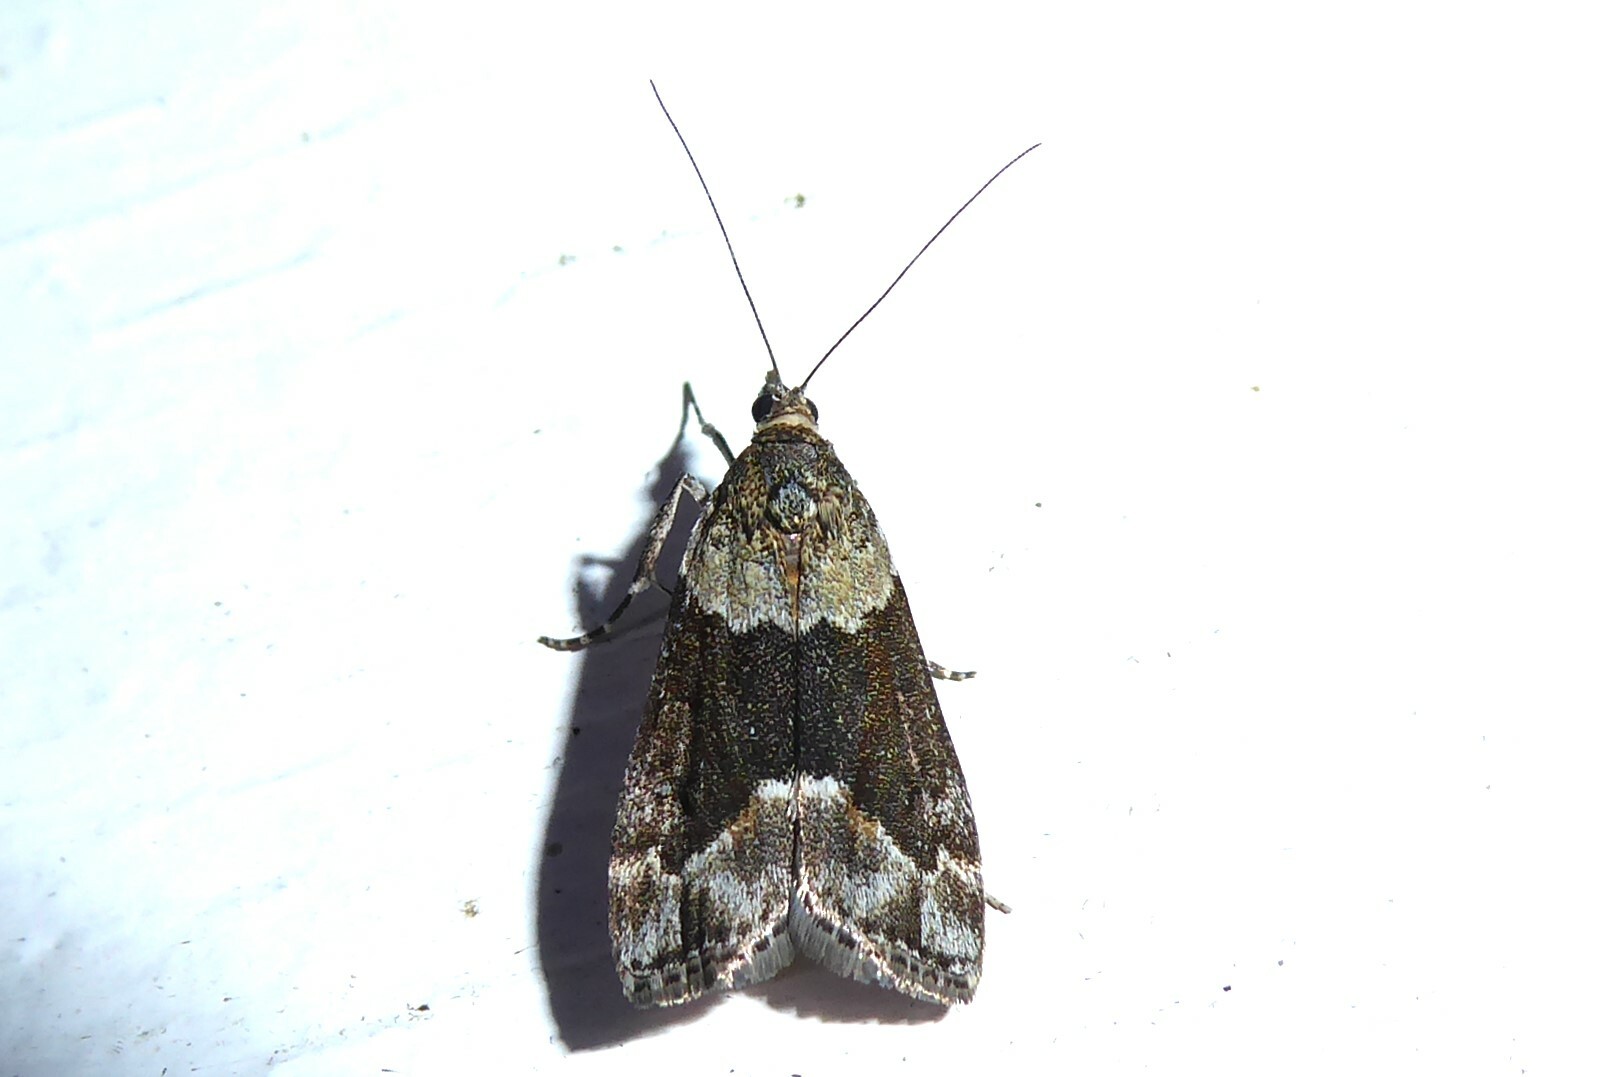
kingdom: Animalia
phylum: Arthropoda
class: Insecta
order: Lepidoptera
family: Crambidae
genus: Eudonia
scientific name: Eudonia submarginalis
